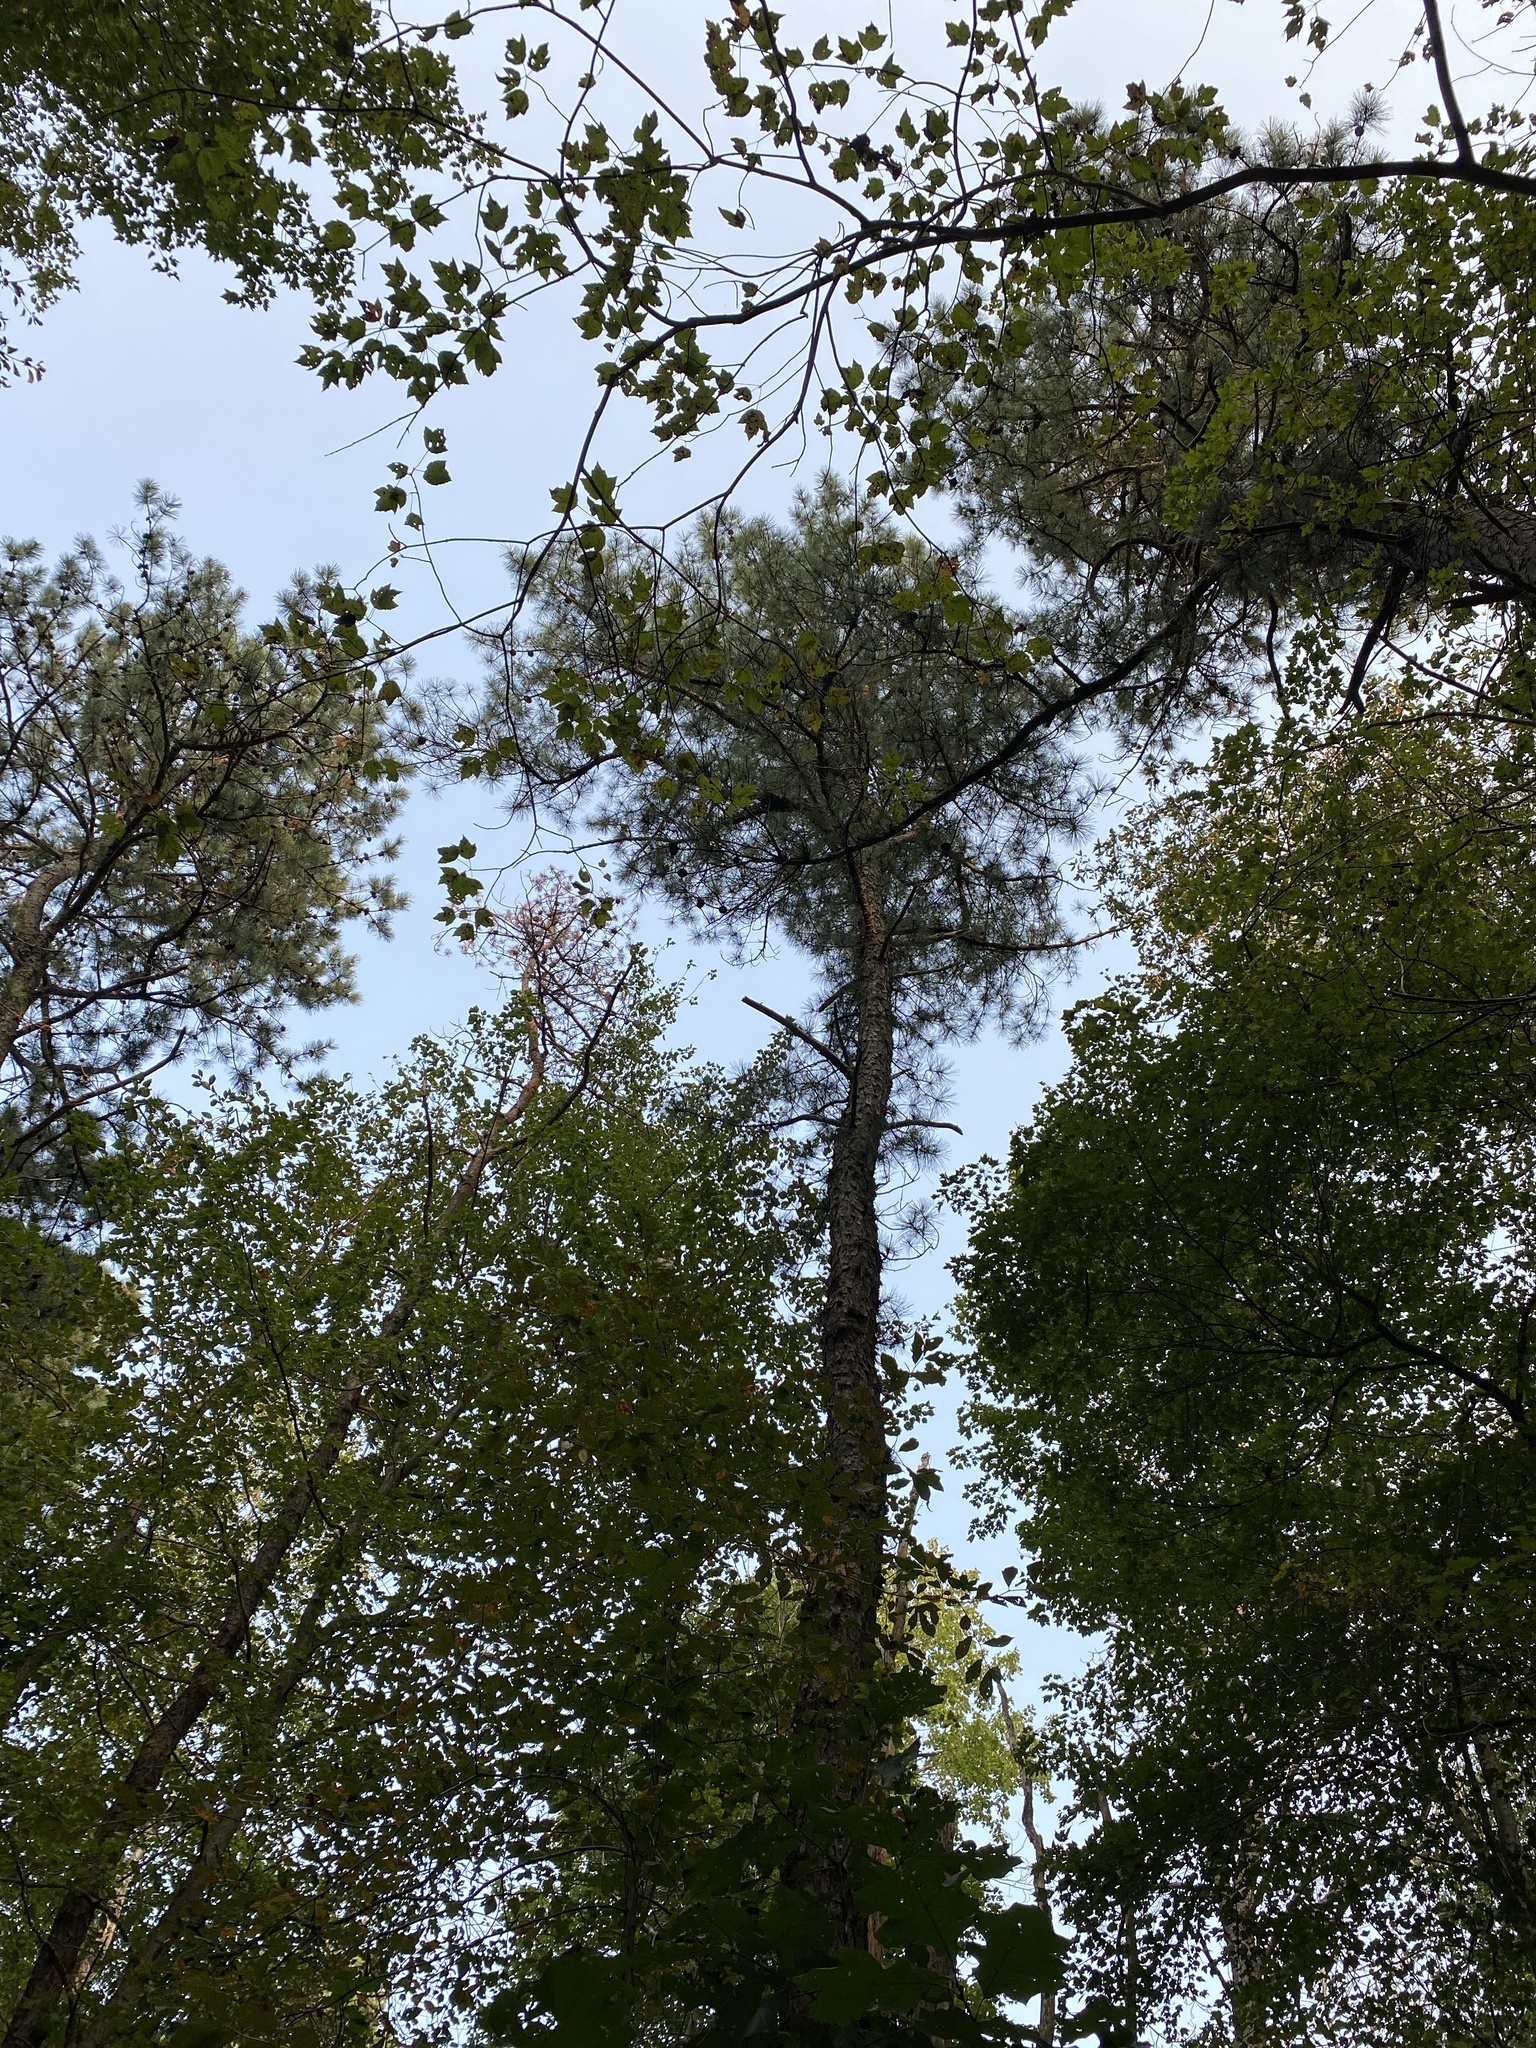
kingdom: Plantae
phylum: Tracheophyta
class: Pinopsida
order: Pinales
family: Pinaceae
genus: Pinus
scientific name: Pinus rigida
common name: Pitch pine
